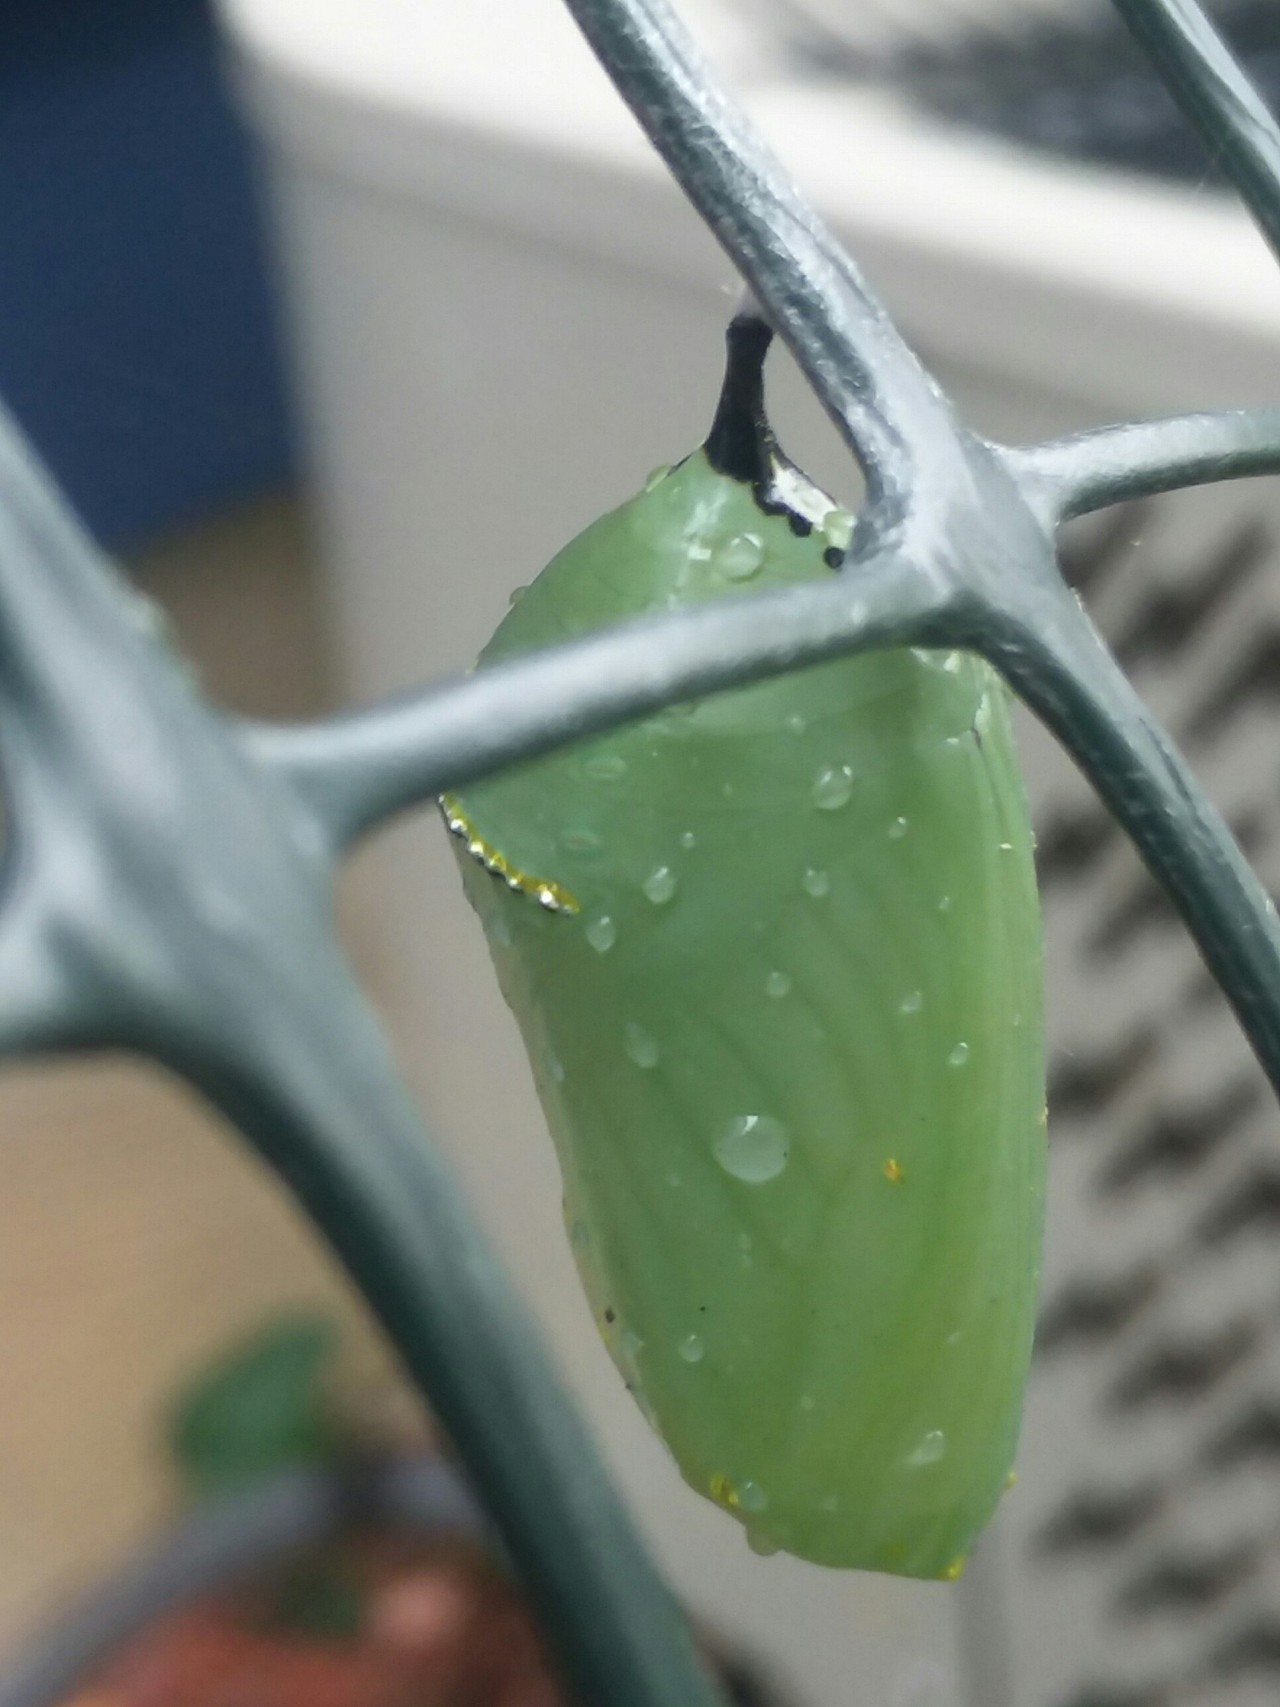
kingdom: Animalia
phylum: Arthropoda
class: Insecta
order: Lepidoptera
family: Nymphalidae
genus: Danaus
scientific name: Danaus plexippus
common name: Monarch
